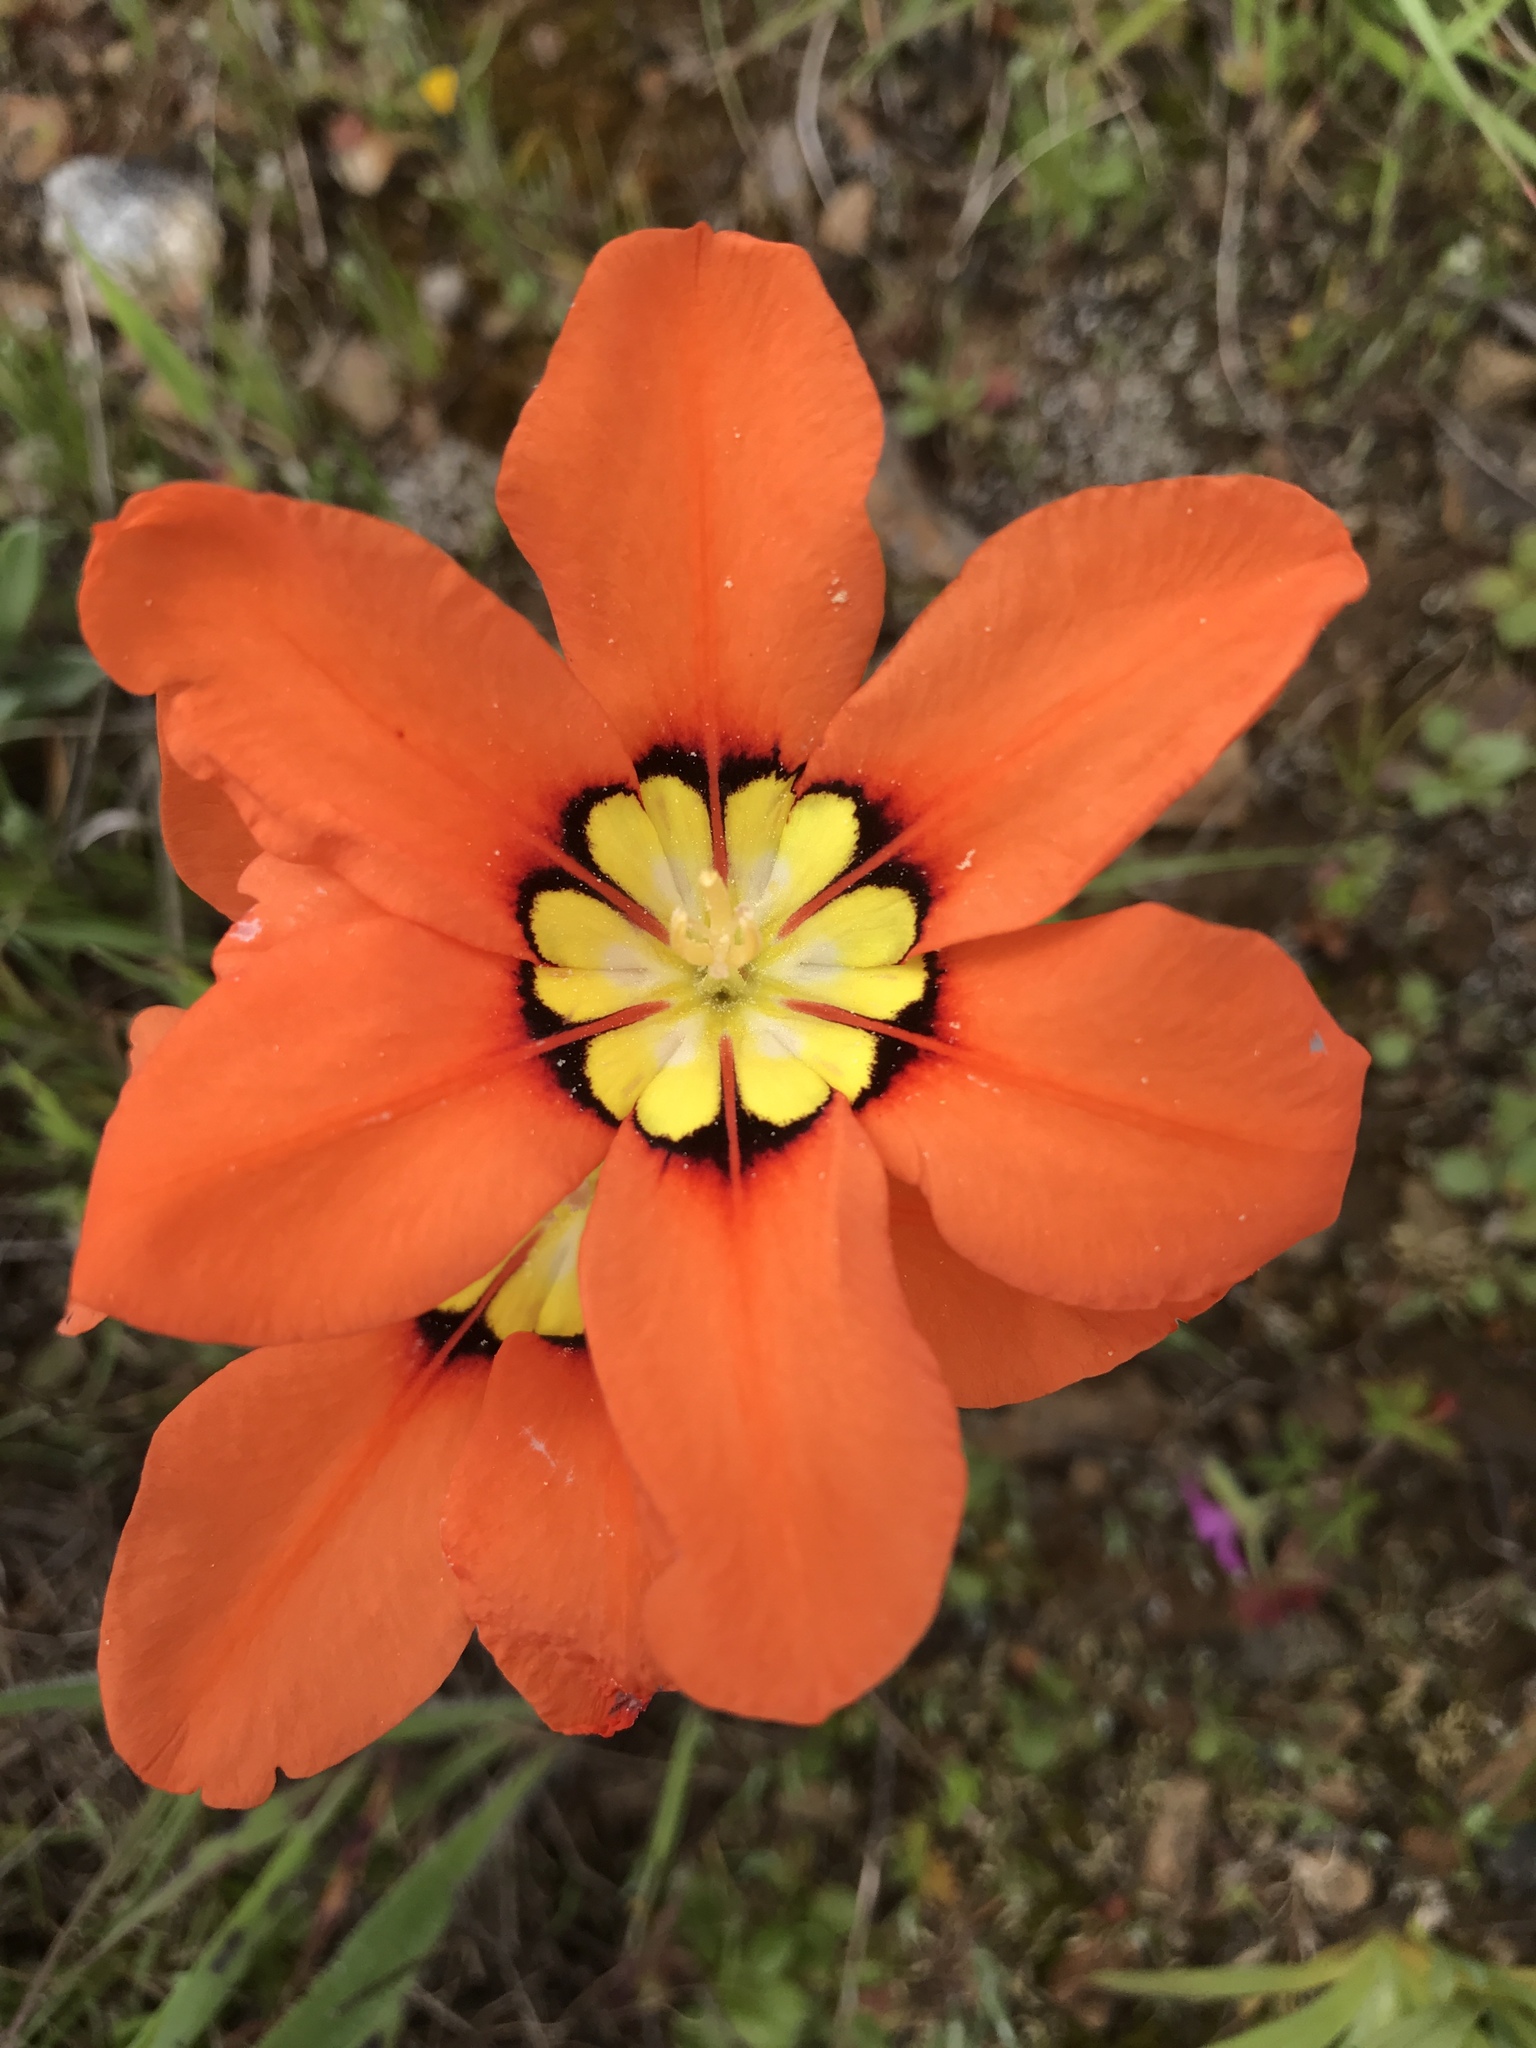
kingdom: Plantae
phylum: Tracheophyta
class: Liliopsida
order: Asparagales
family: Iridaceae
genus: Sparaxis
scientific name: Sparaxis tricolor
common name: Wandflower
